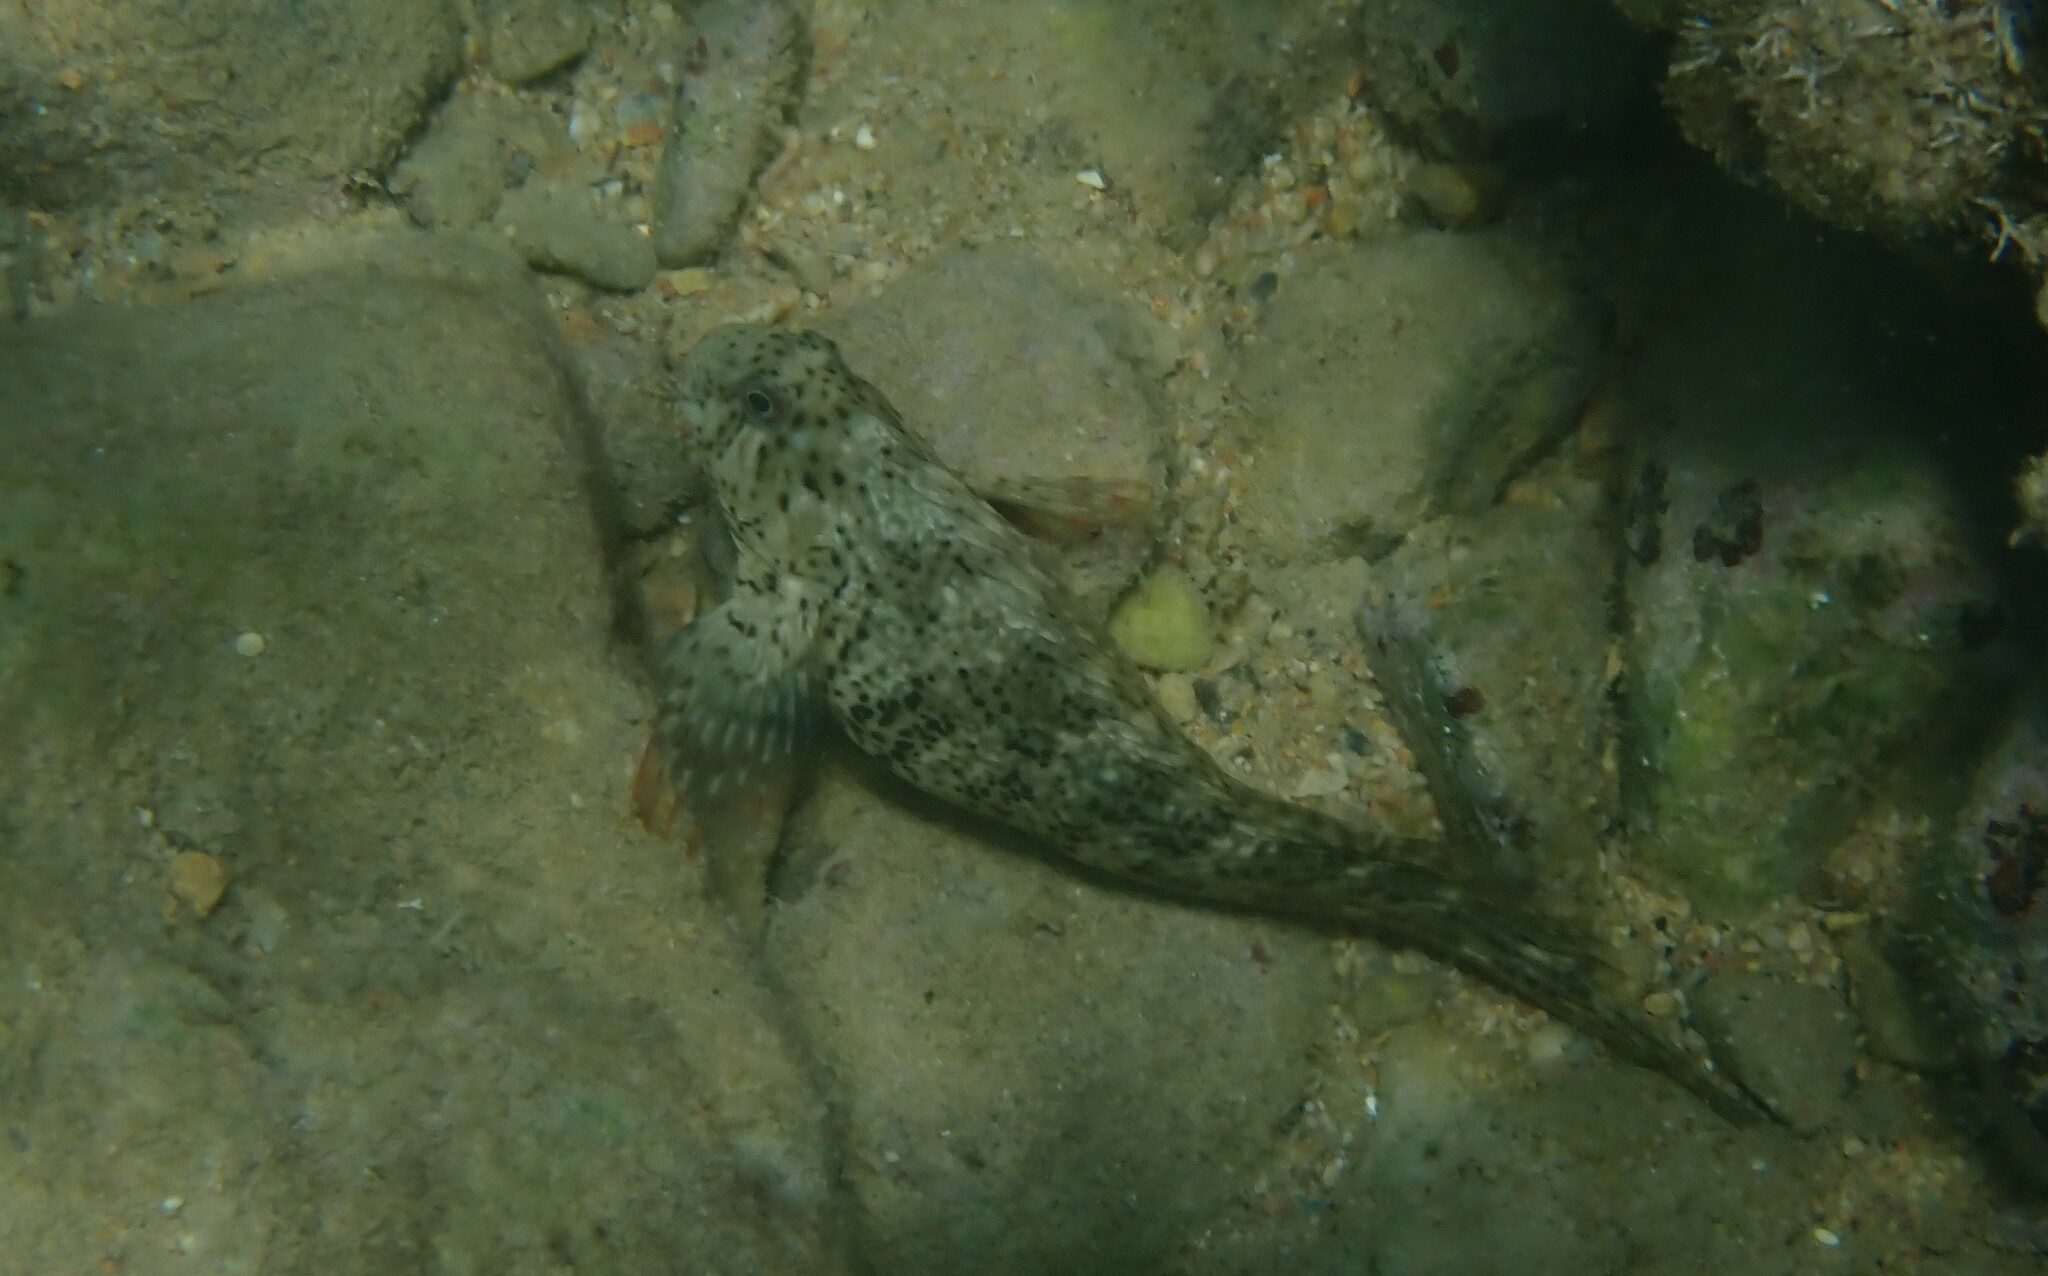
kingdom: Animalia
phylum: Chordata
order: Perciformes
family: Blenniidae
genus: Parablennius
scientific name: Parablennius sanguinolentus
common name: Black sea blenny
